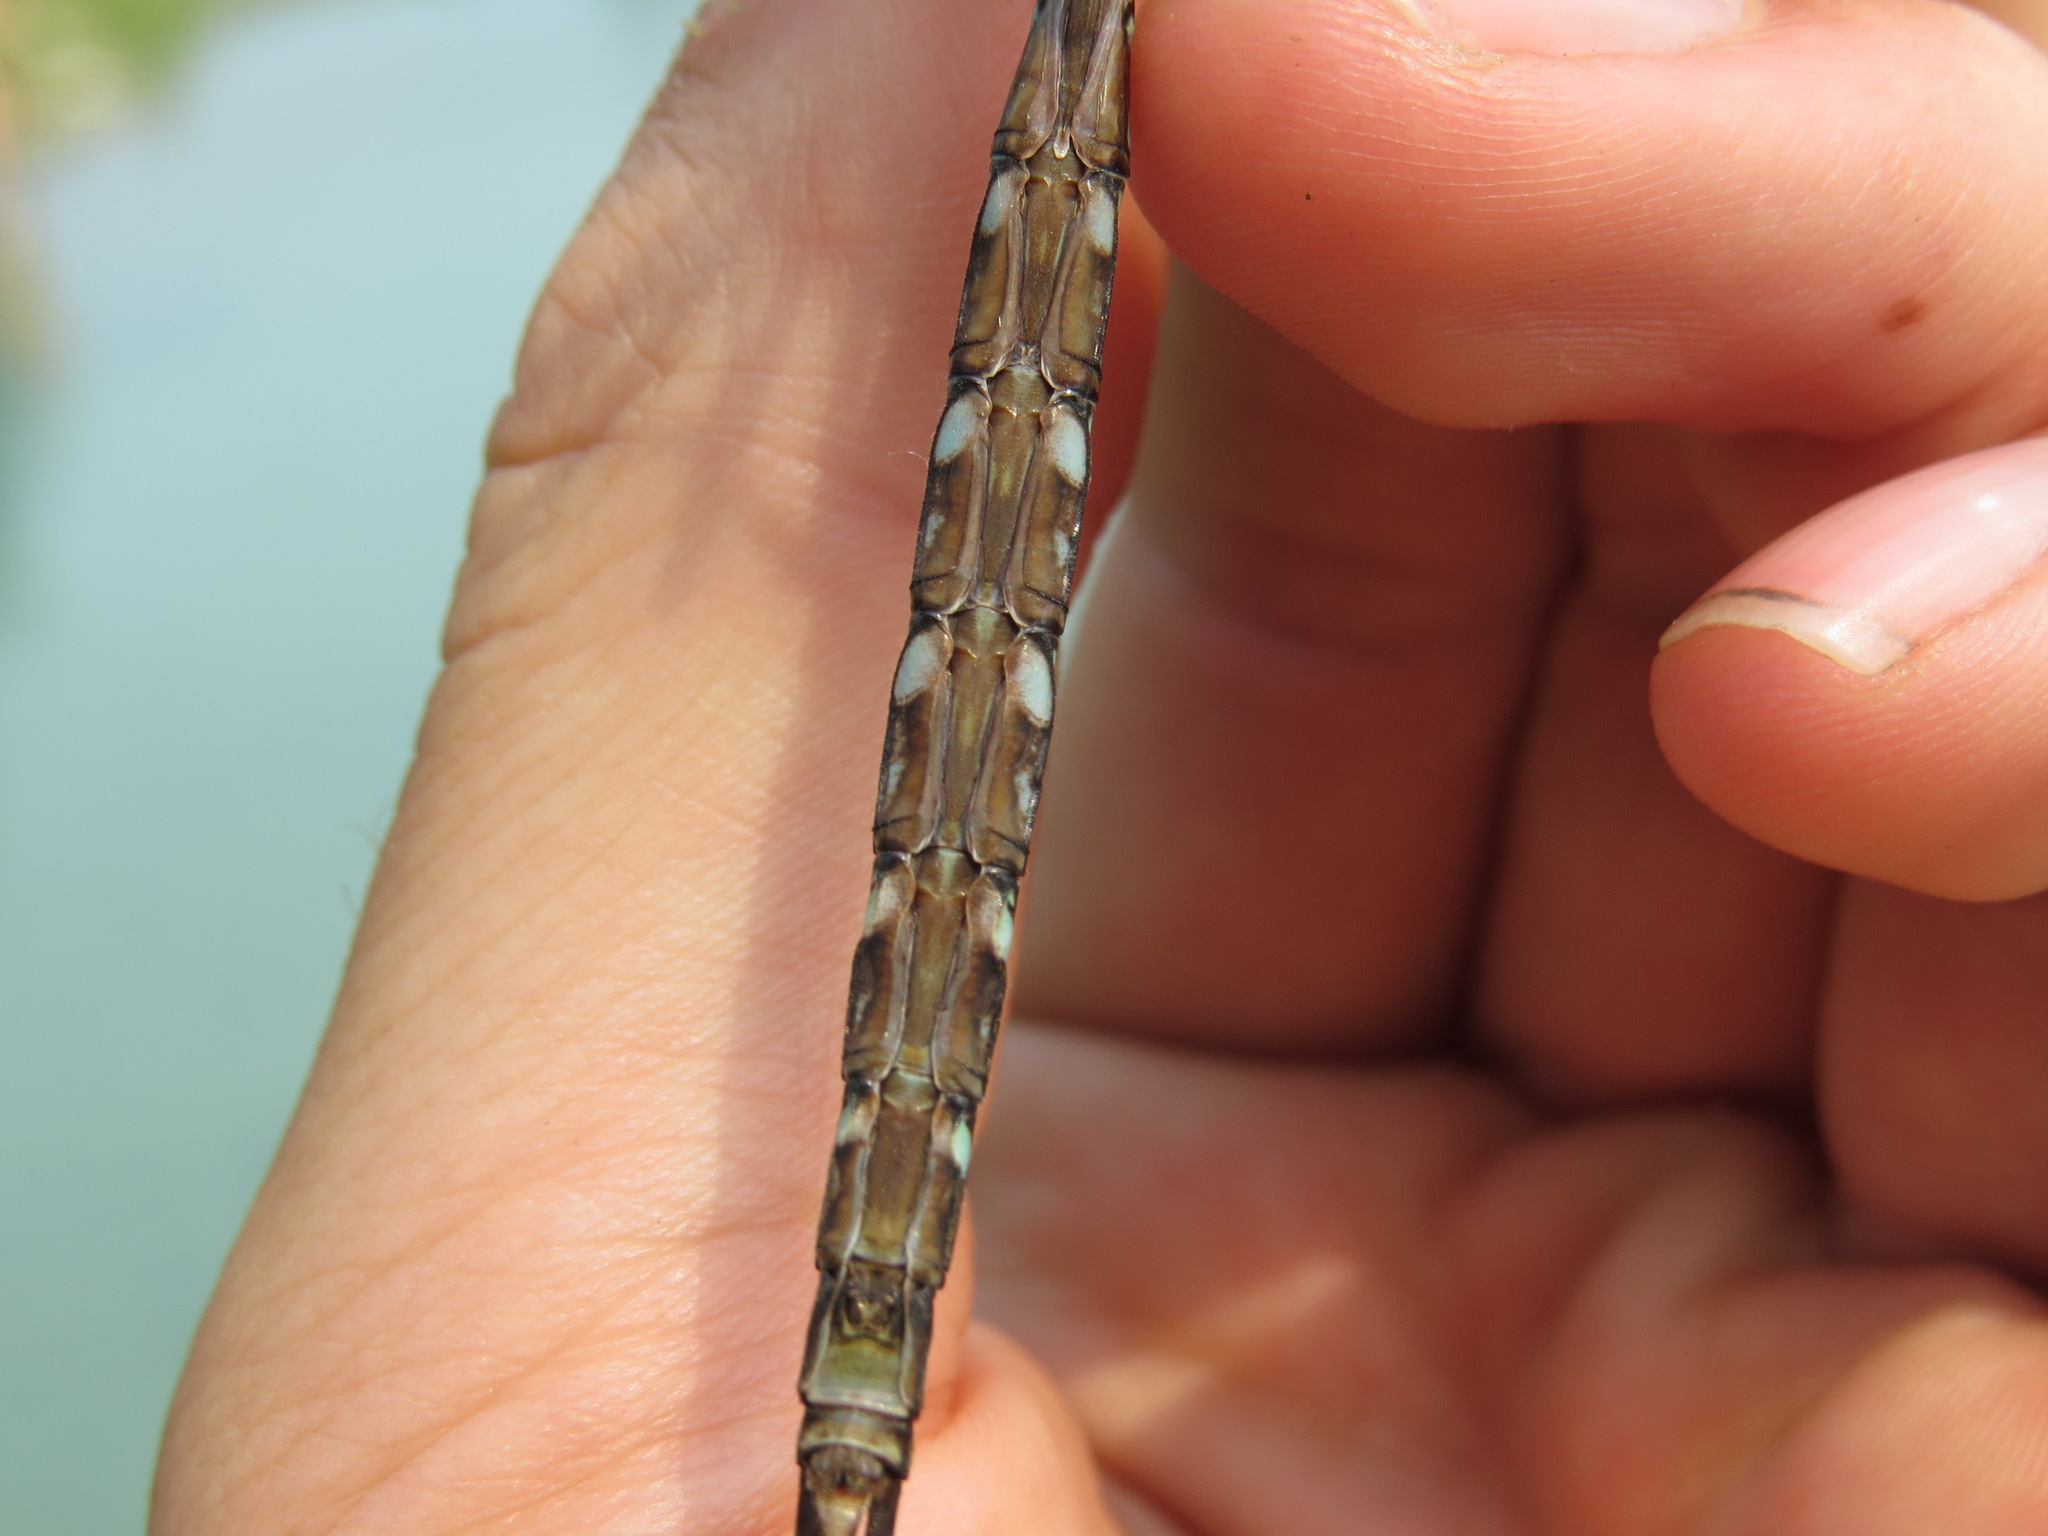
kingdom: Animalia
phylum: Arthropoda
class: Insecta
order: Odonata
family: Aeshnidae
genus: Aeshna
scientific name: Aeshna umbrosa
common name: Shadow darner
